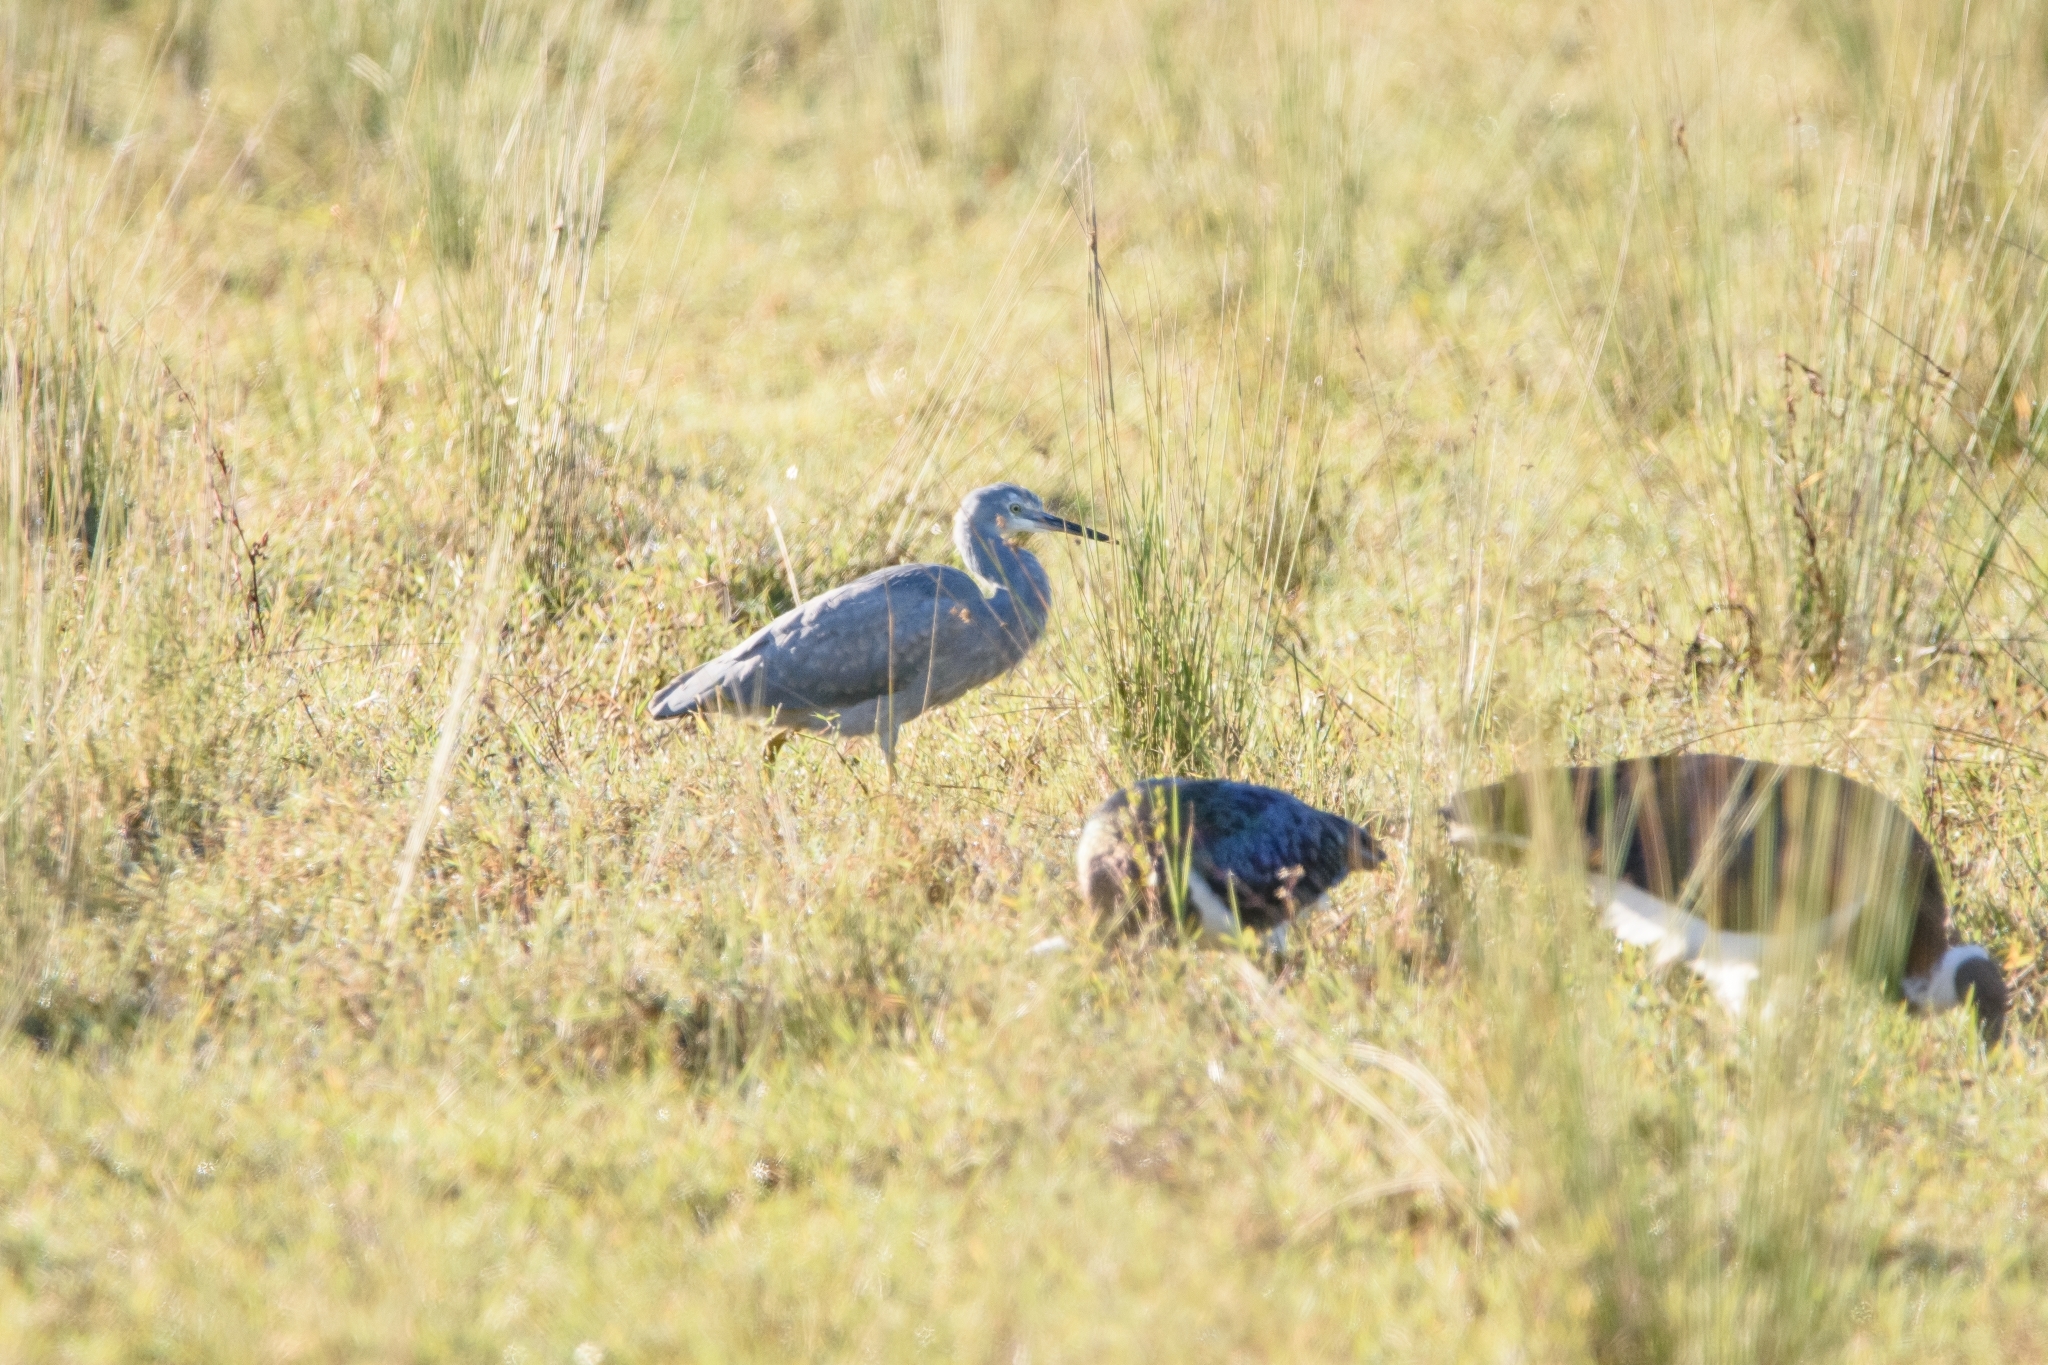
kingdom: Animalia
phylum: Chordata
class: Aves
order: Pelecaniformes
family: Ardeidae
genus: Egretta
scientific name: Egretta novaehollandiae
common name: White-faced heron
